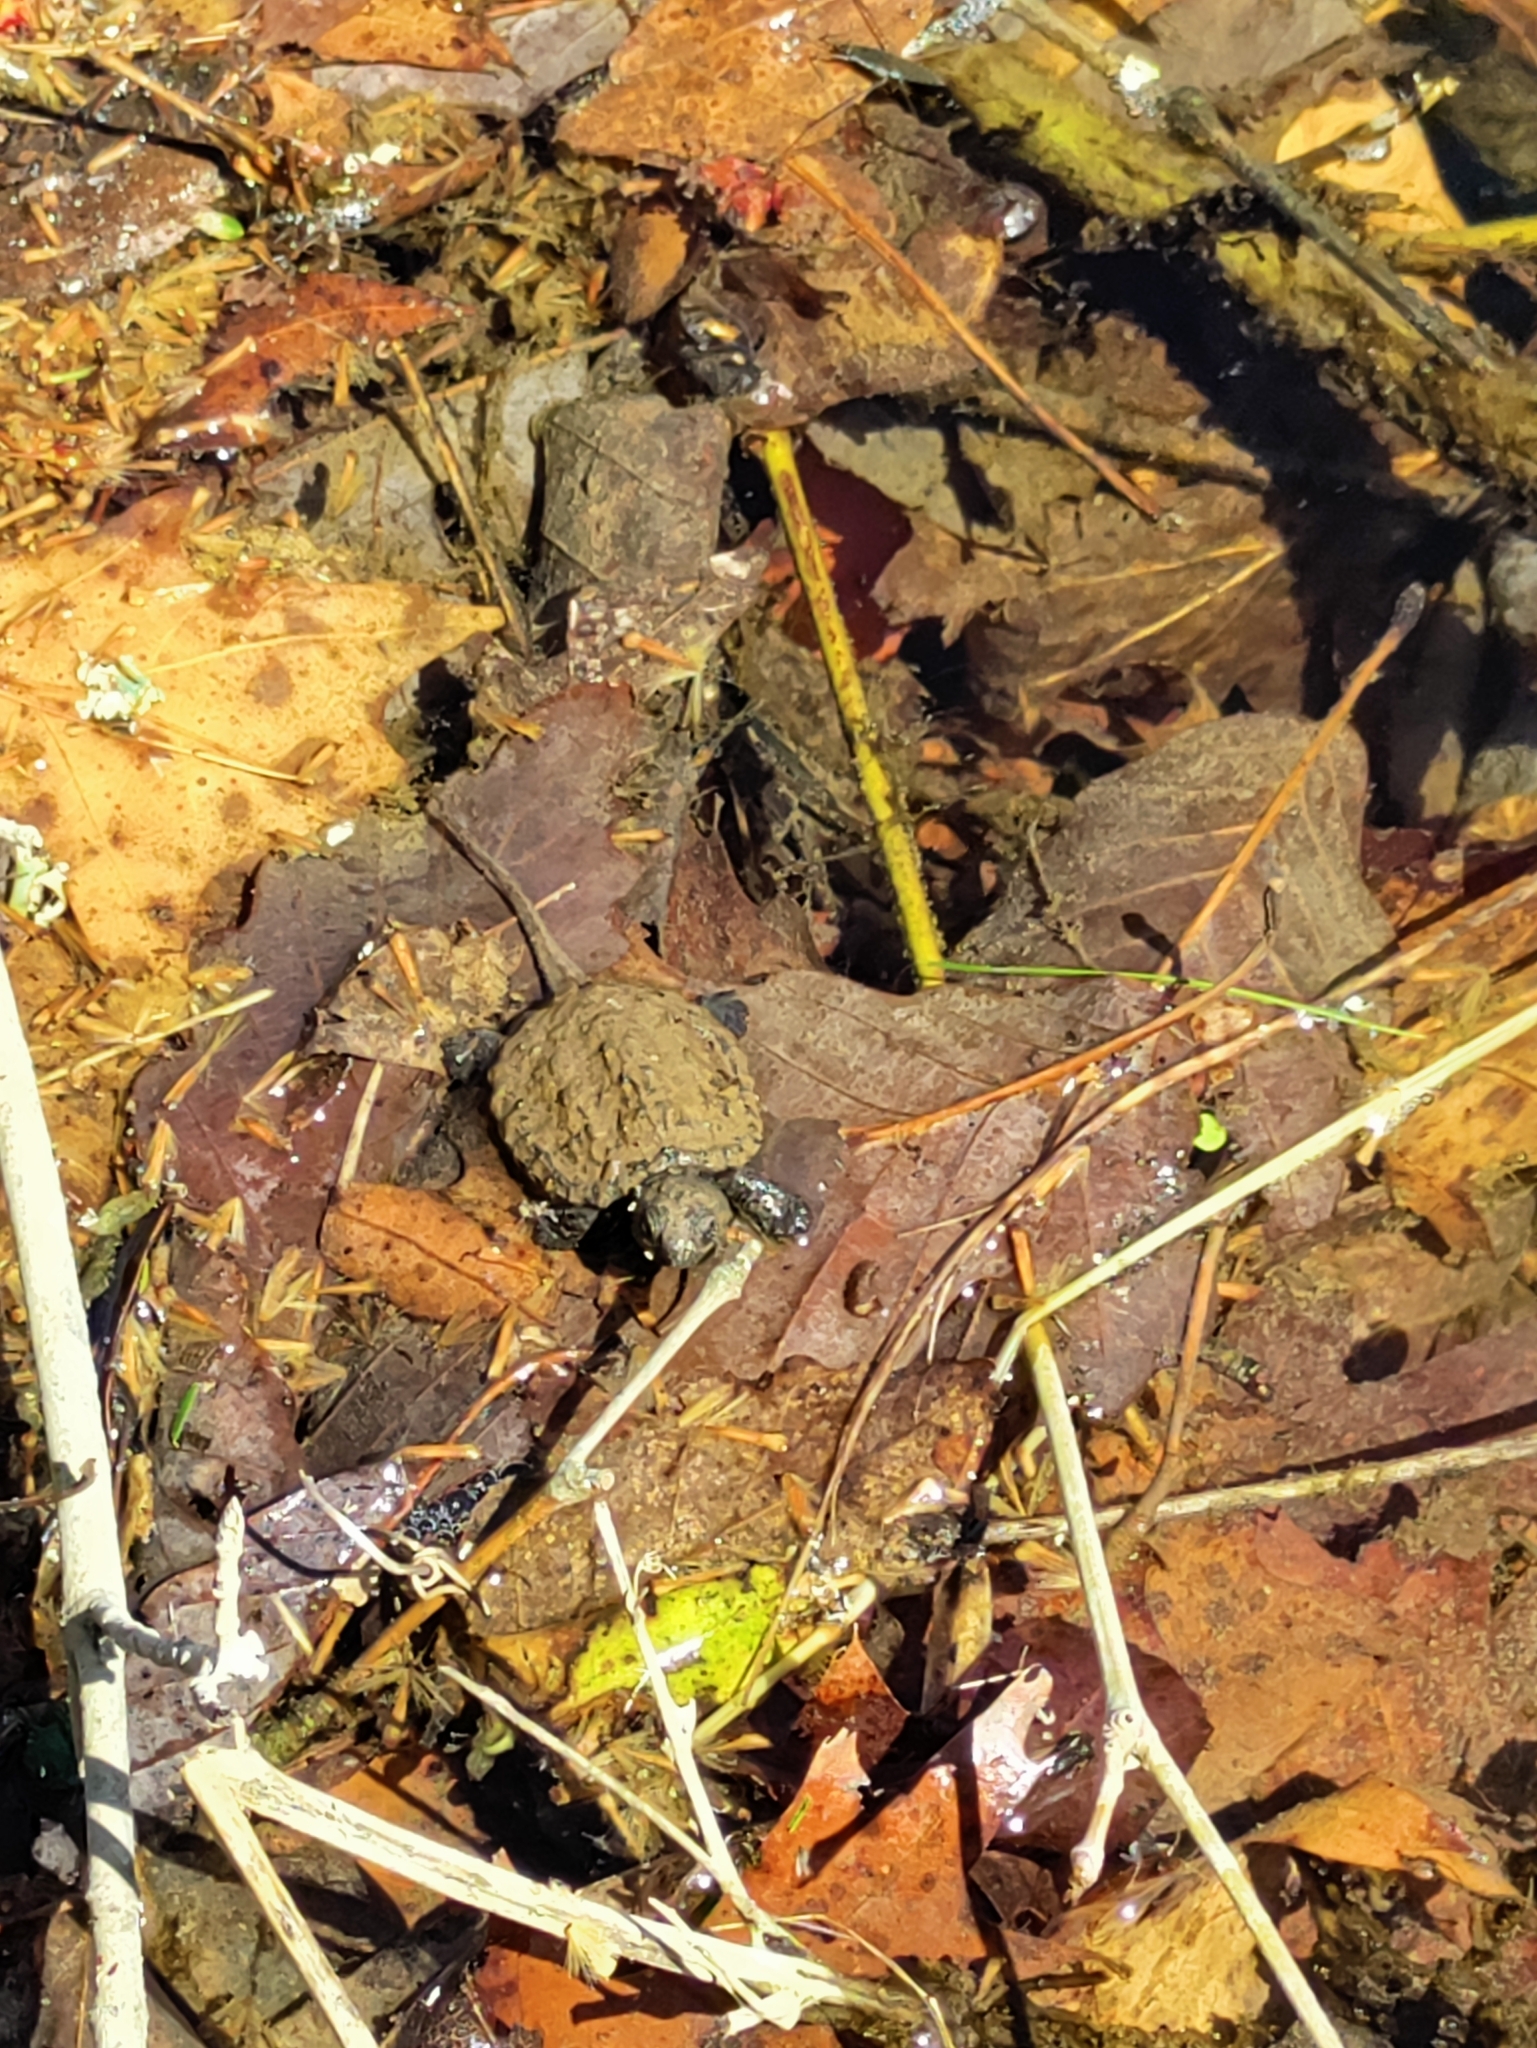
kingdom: Animalia
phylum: Chordata
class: Testudines
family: Chelydridae
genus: Chelydra
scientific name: Chelydra serpentina
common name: Common snapping turtle
